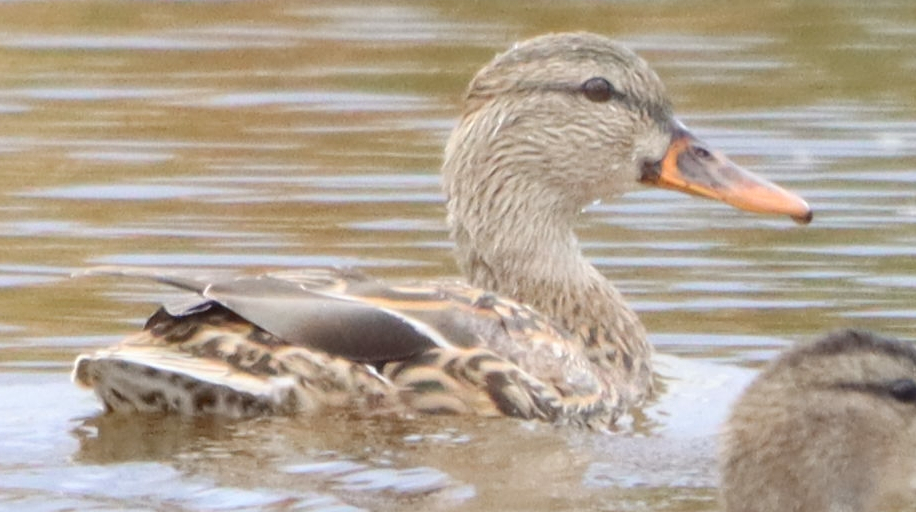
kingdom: Animalia
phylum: Chordata
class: Aves
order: Anseriformes
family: Anatidae
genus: Anas
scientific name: Anas platyrhynchos
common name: Mallard
